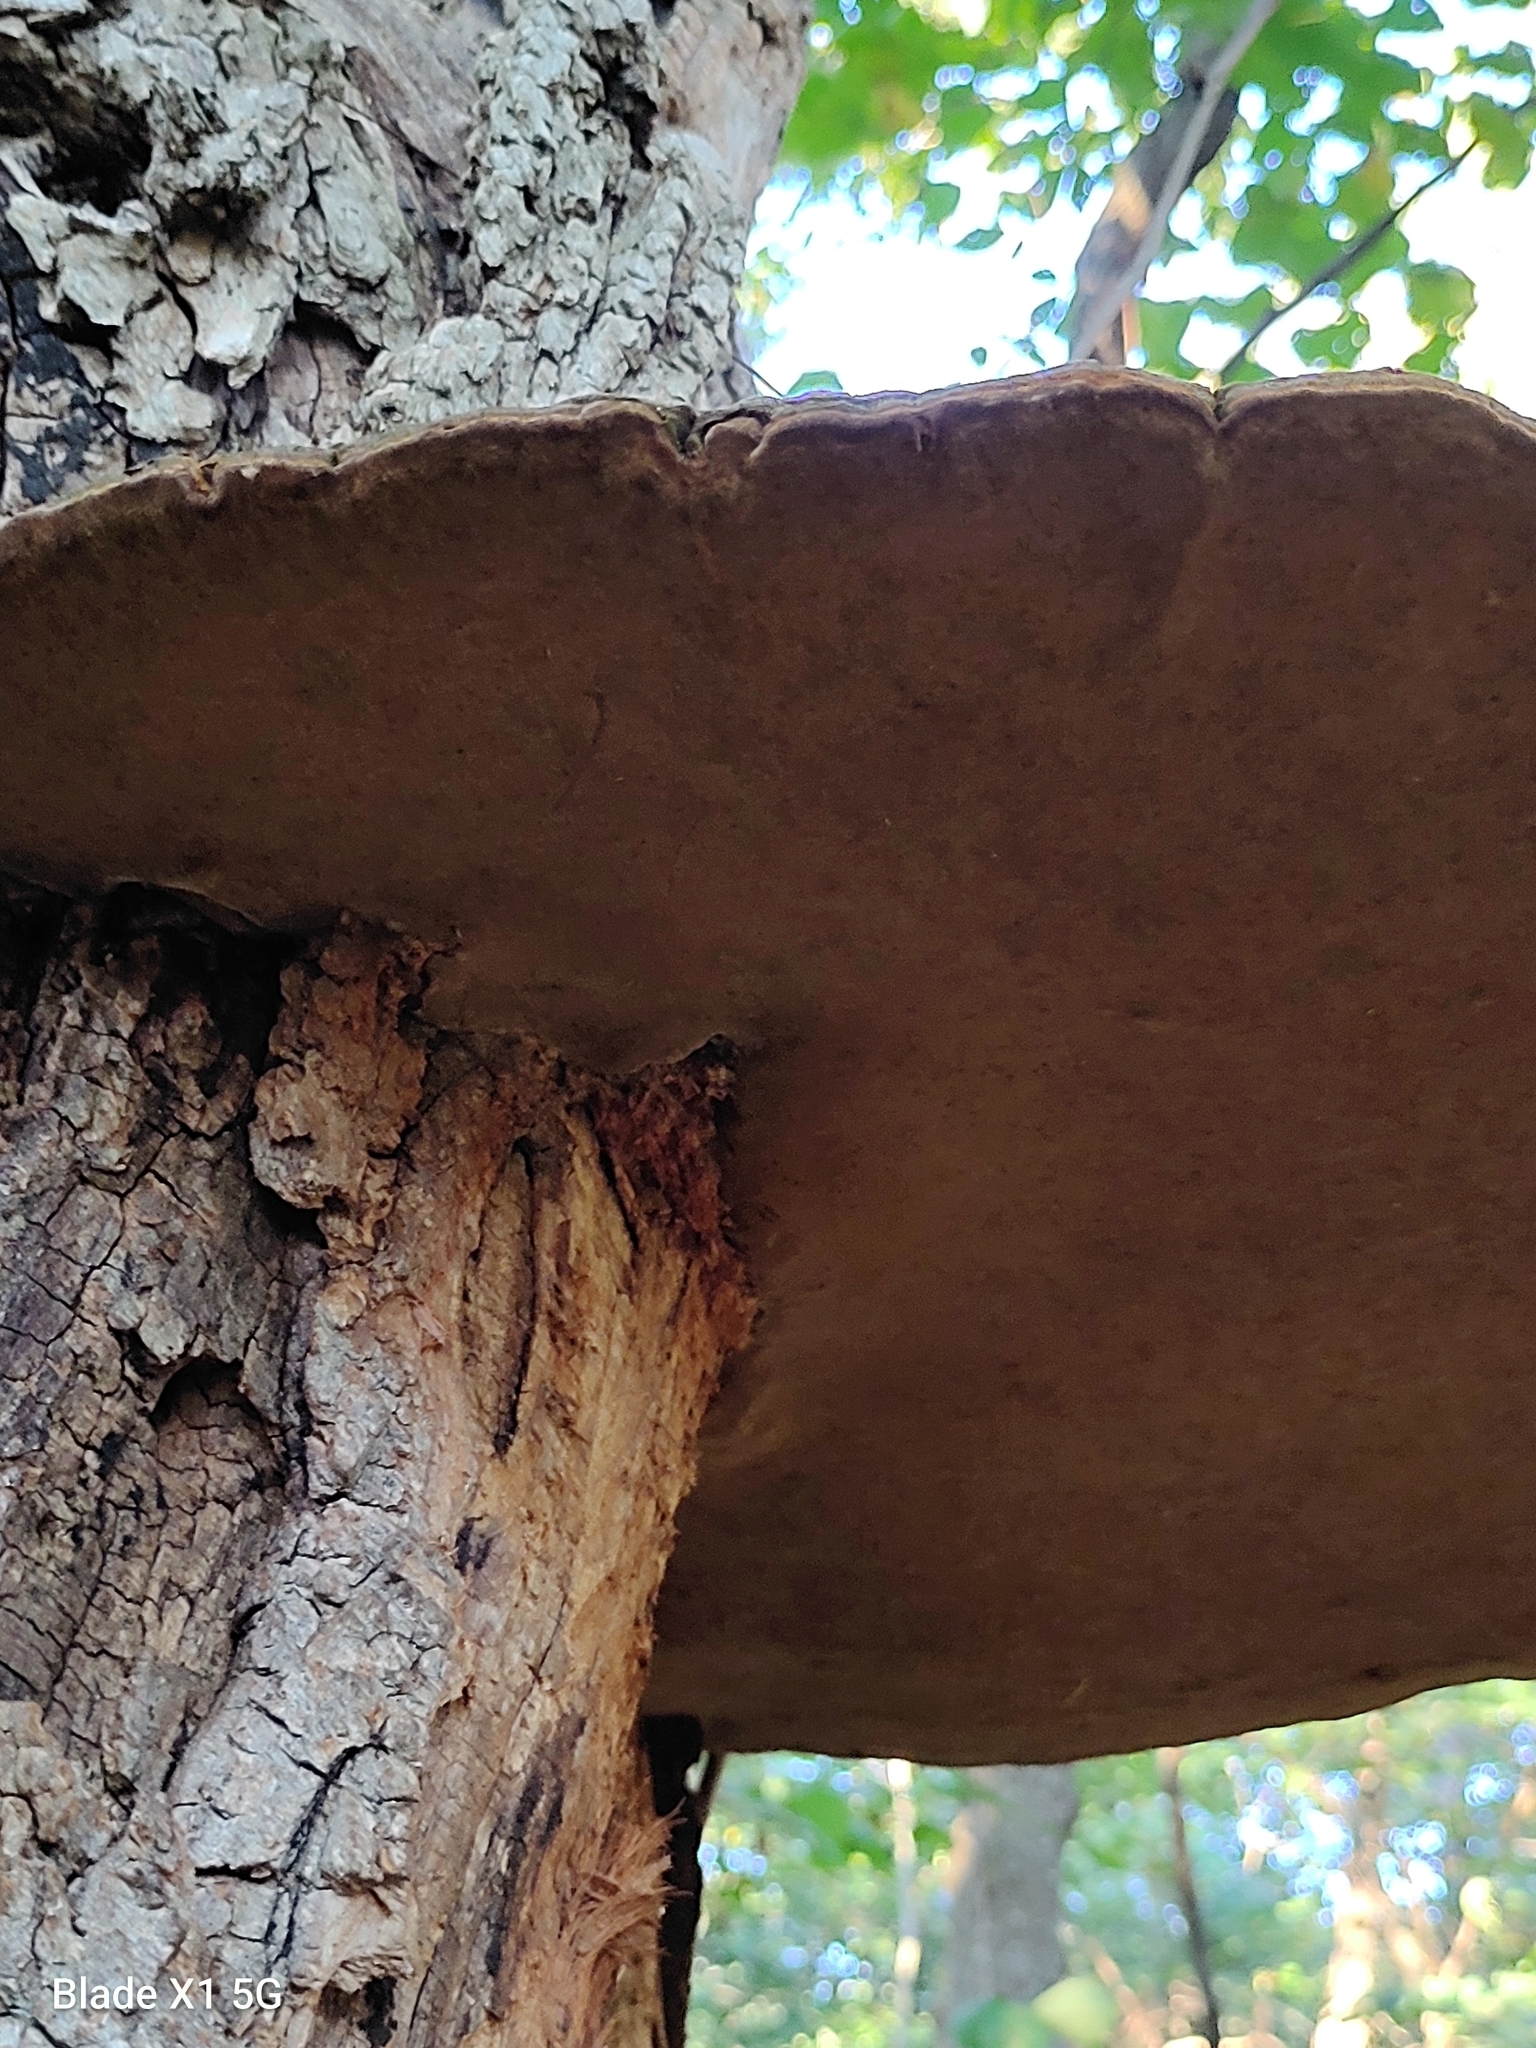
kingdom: Fungi
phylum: Basidiomycota
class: Agaricomycetes
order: Hymenochaetales
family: Hymenochaetaceae
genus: Phellinus
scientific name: Phellinus robiniae
